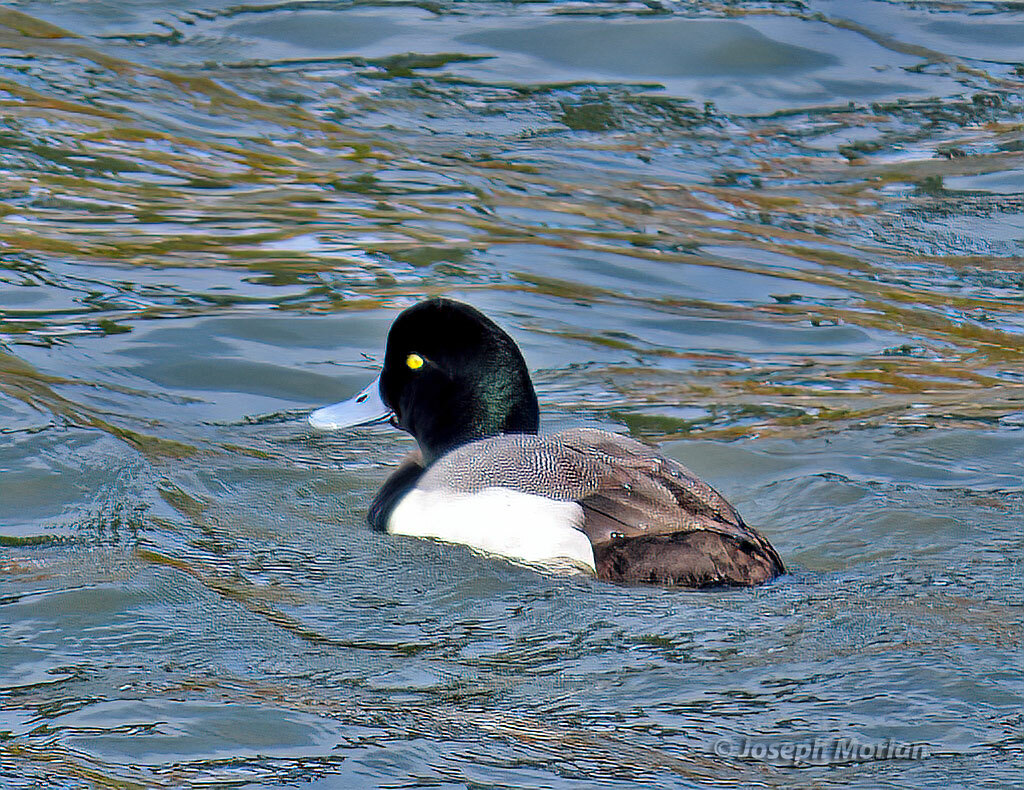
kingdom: Animalia
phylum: Chordata
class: Aves
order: Anseriformes
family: Anatidae
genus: Aythya
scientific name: Aythya marila
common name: Greater scaup
